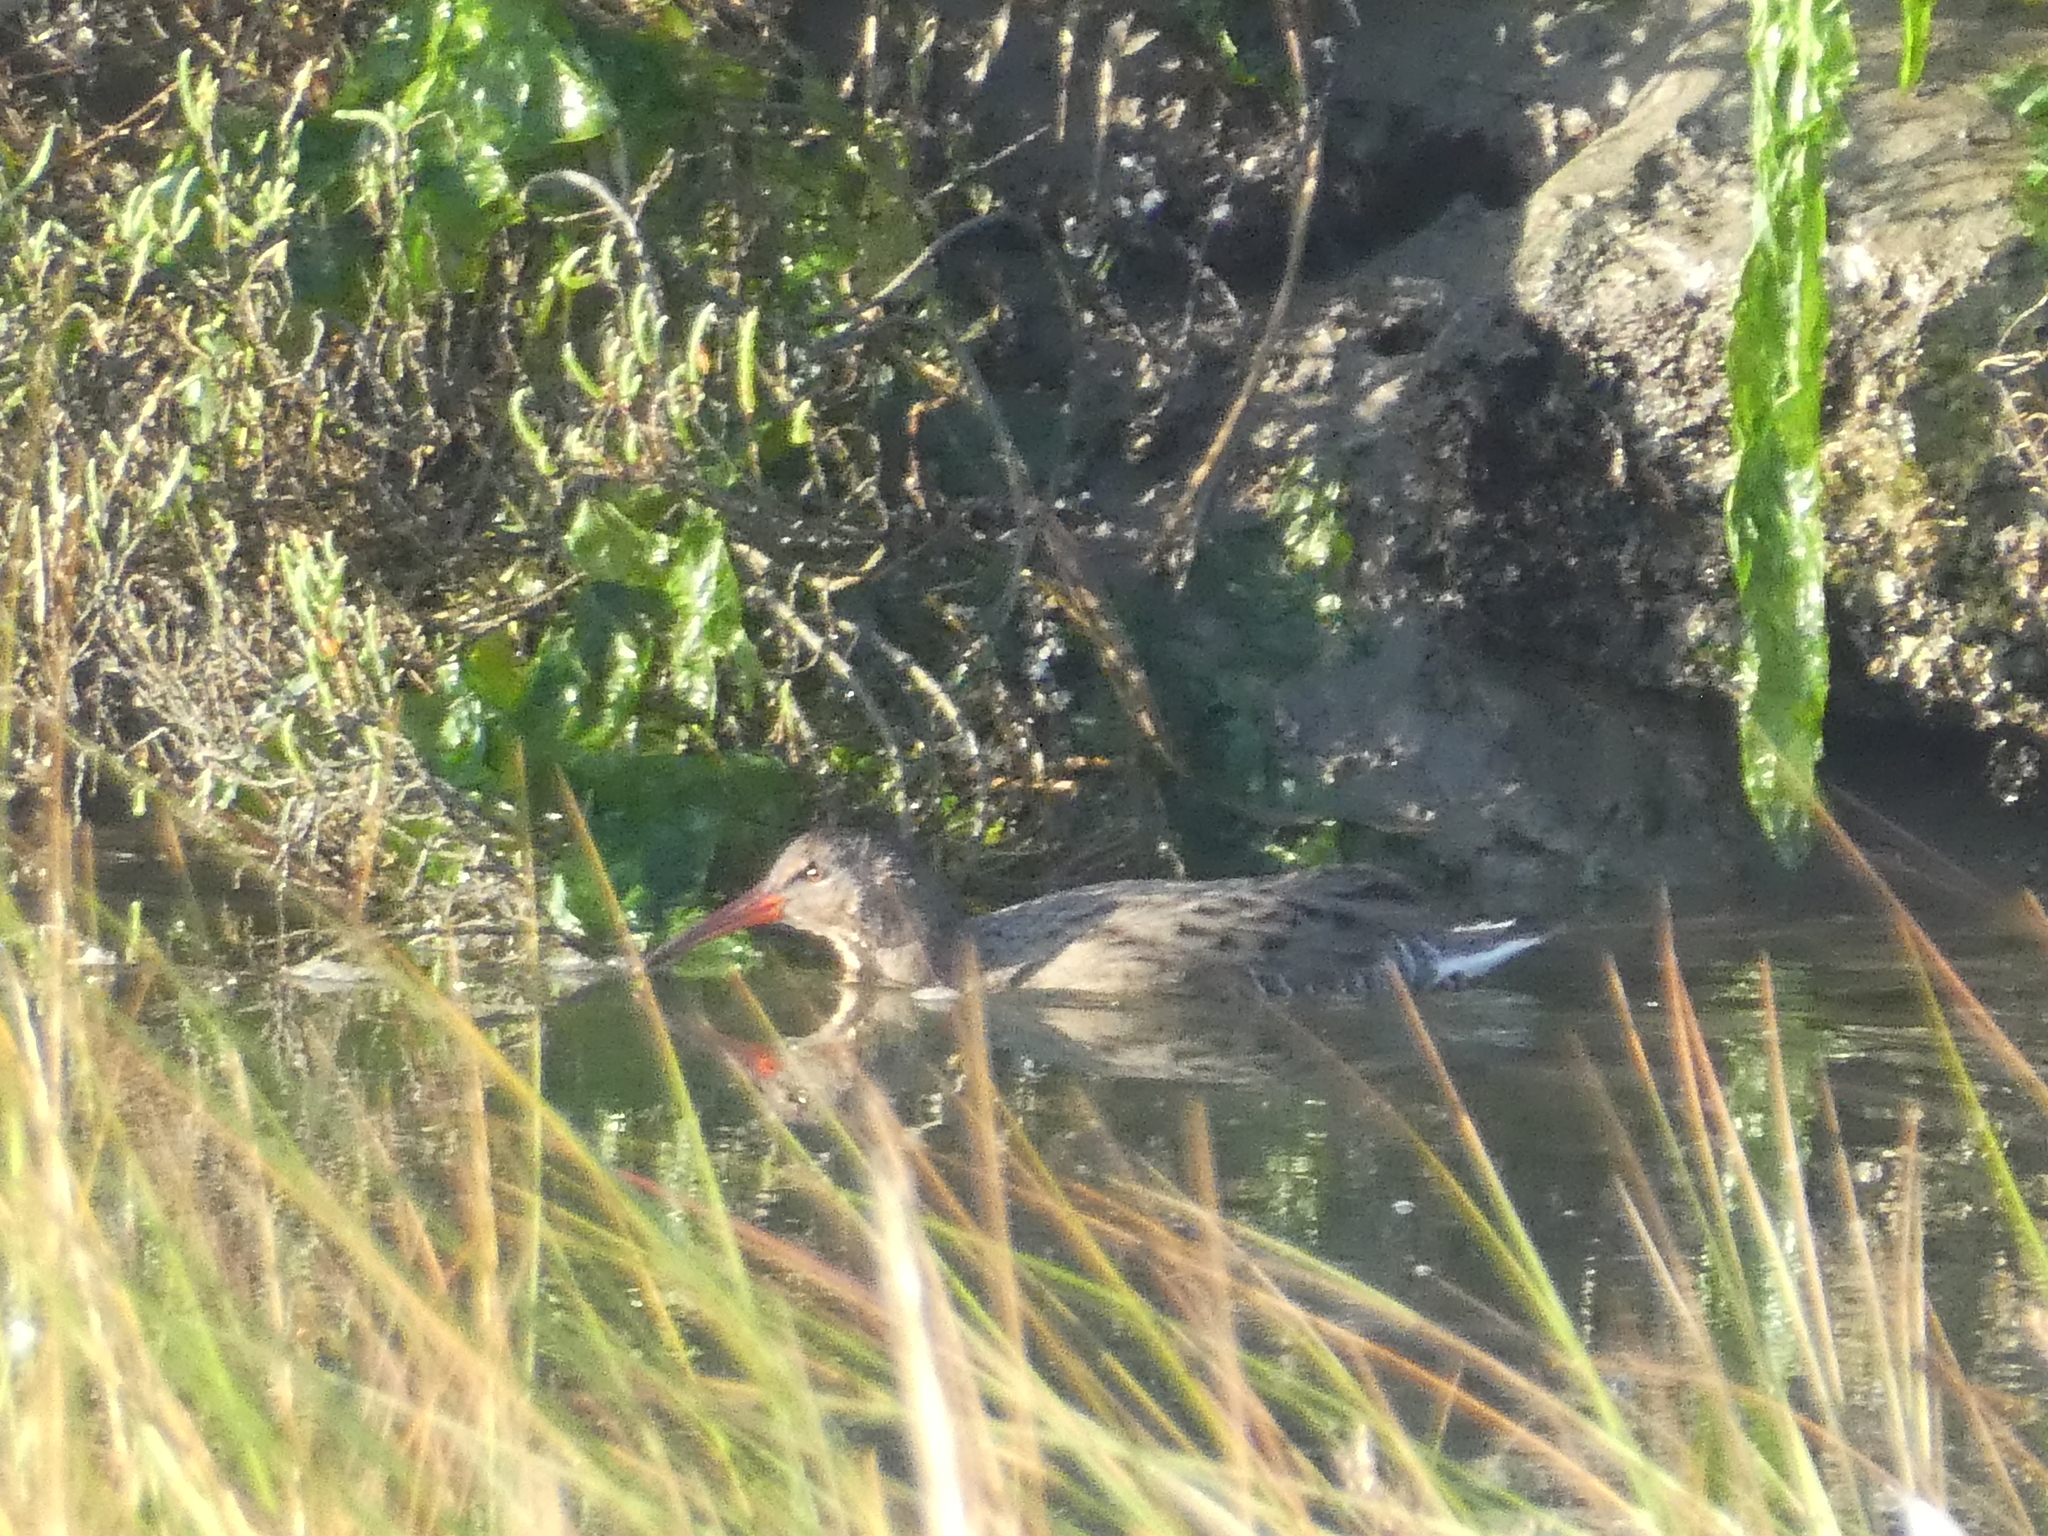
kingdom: Animalia
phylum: Chordata
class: Aves
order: Gruiformes
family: Rallidae
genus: Rallus
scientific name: Rallus obsoletus
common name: Ridgway's rail
